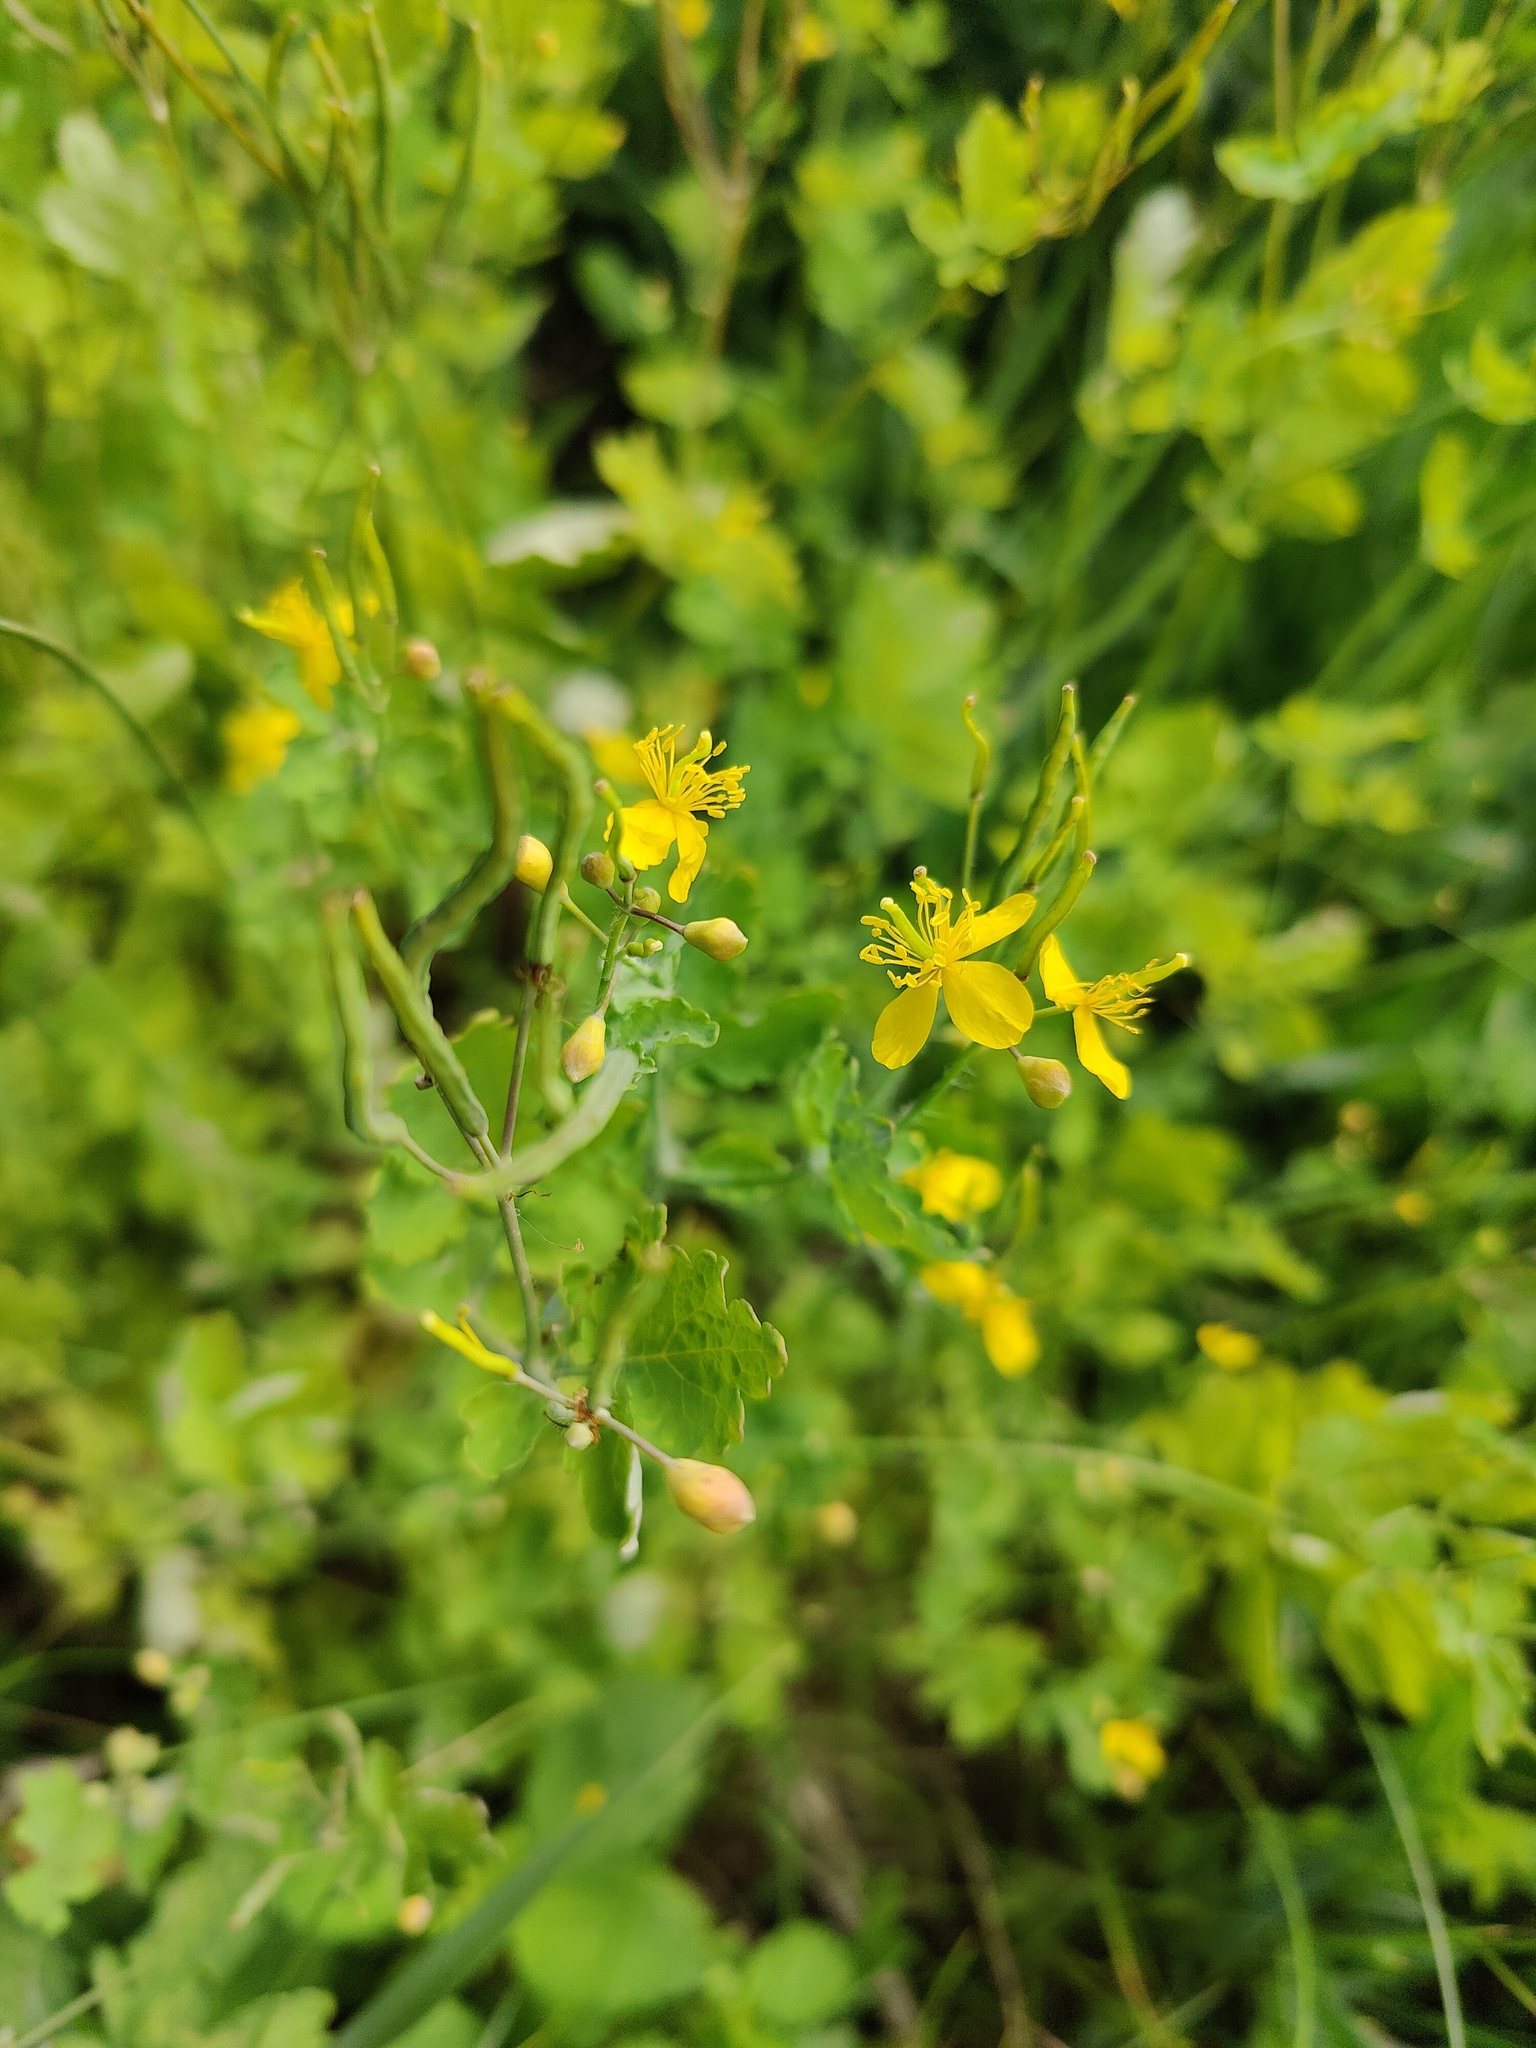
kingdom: Plantae
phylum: Tracheophyta
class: Magnoliopsida
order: Ranunculales
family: Papaveraceae
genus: Chelidonium
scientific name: Chelidonium majus
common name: Greater celandine
